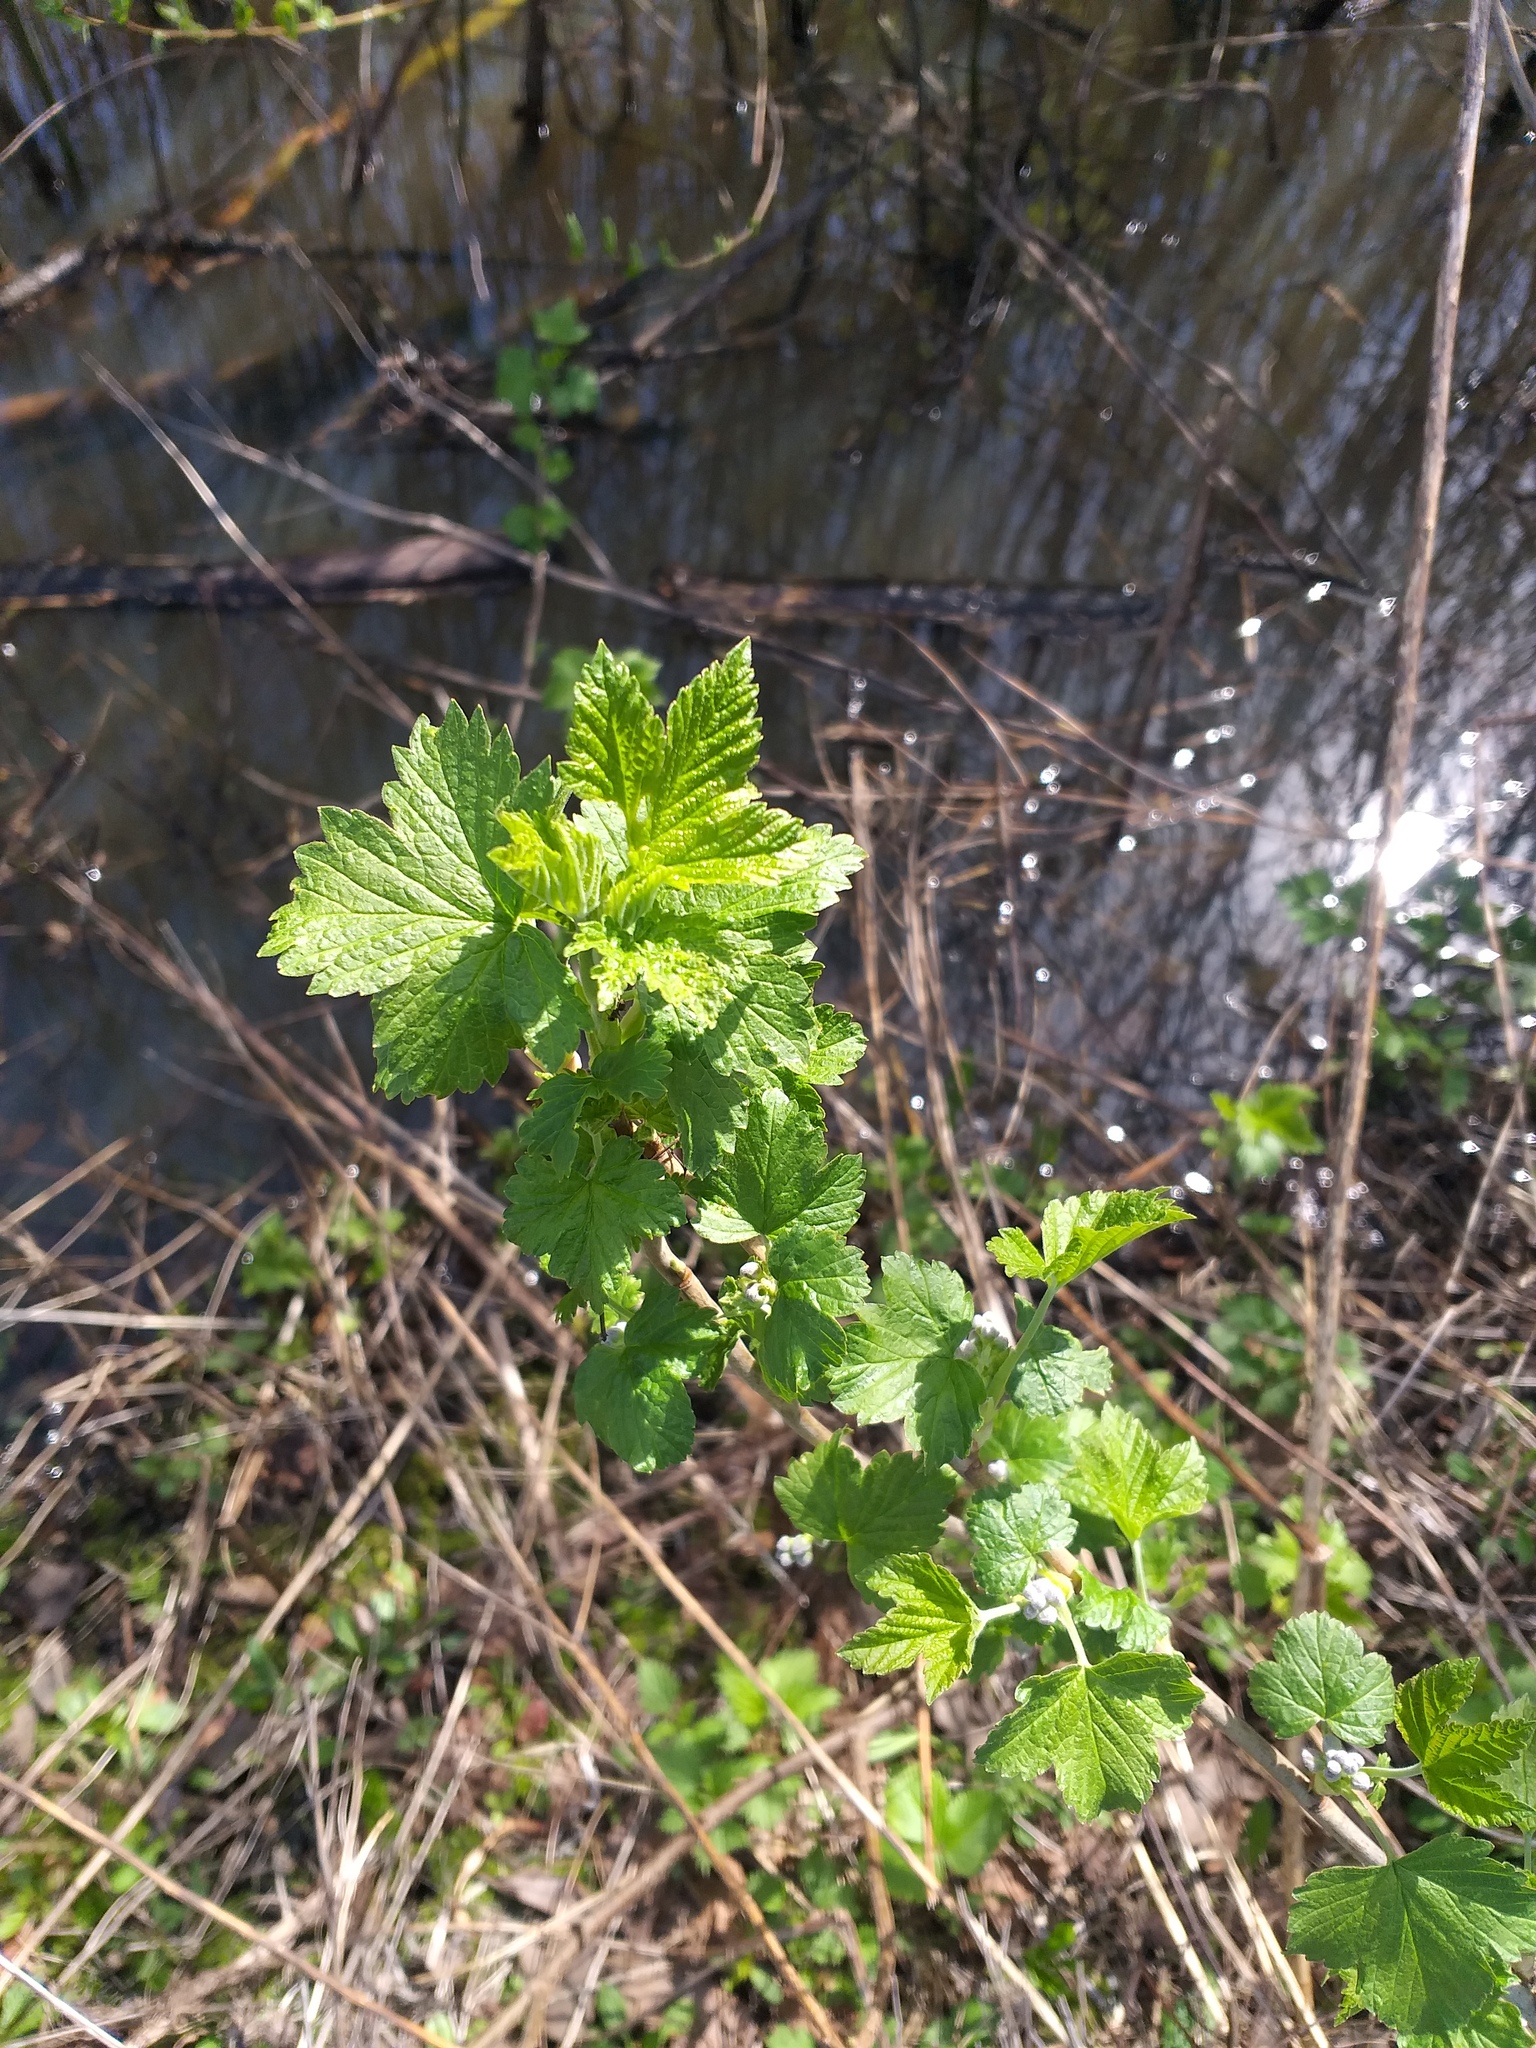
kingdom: Plantae
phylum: Tracheophyta
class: Magnoliopsida
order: Saxifragales
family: Grossulariaceae
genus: Ribes
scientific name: Ribes nigrum
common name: Black currant
